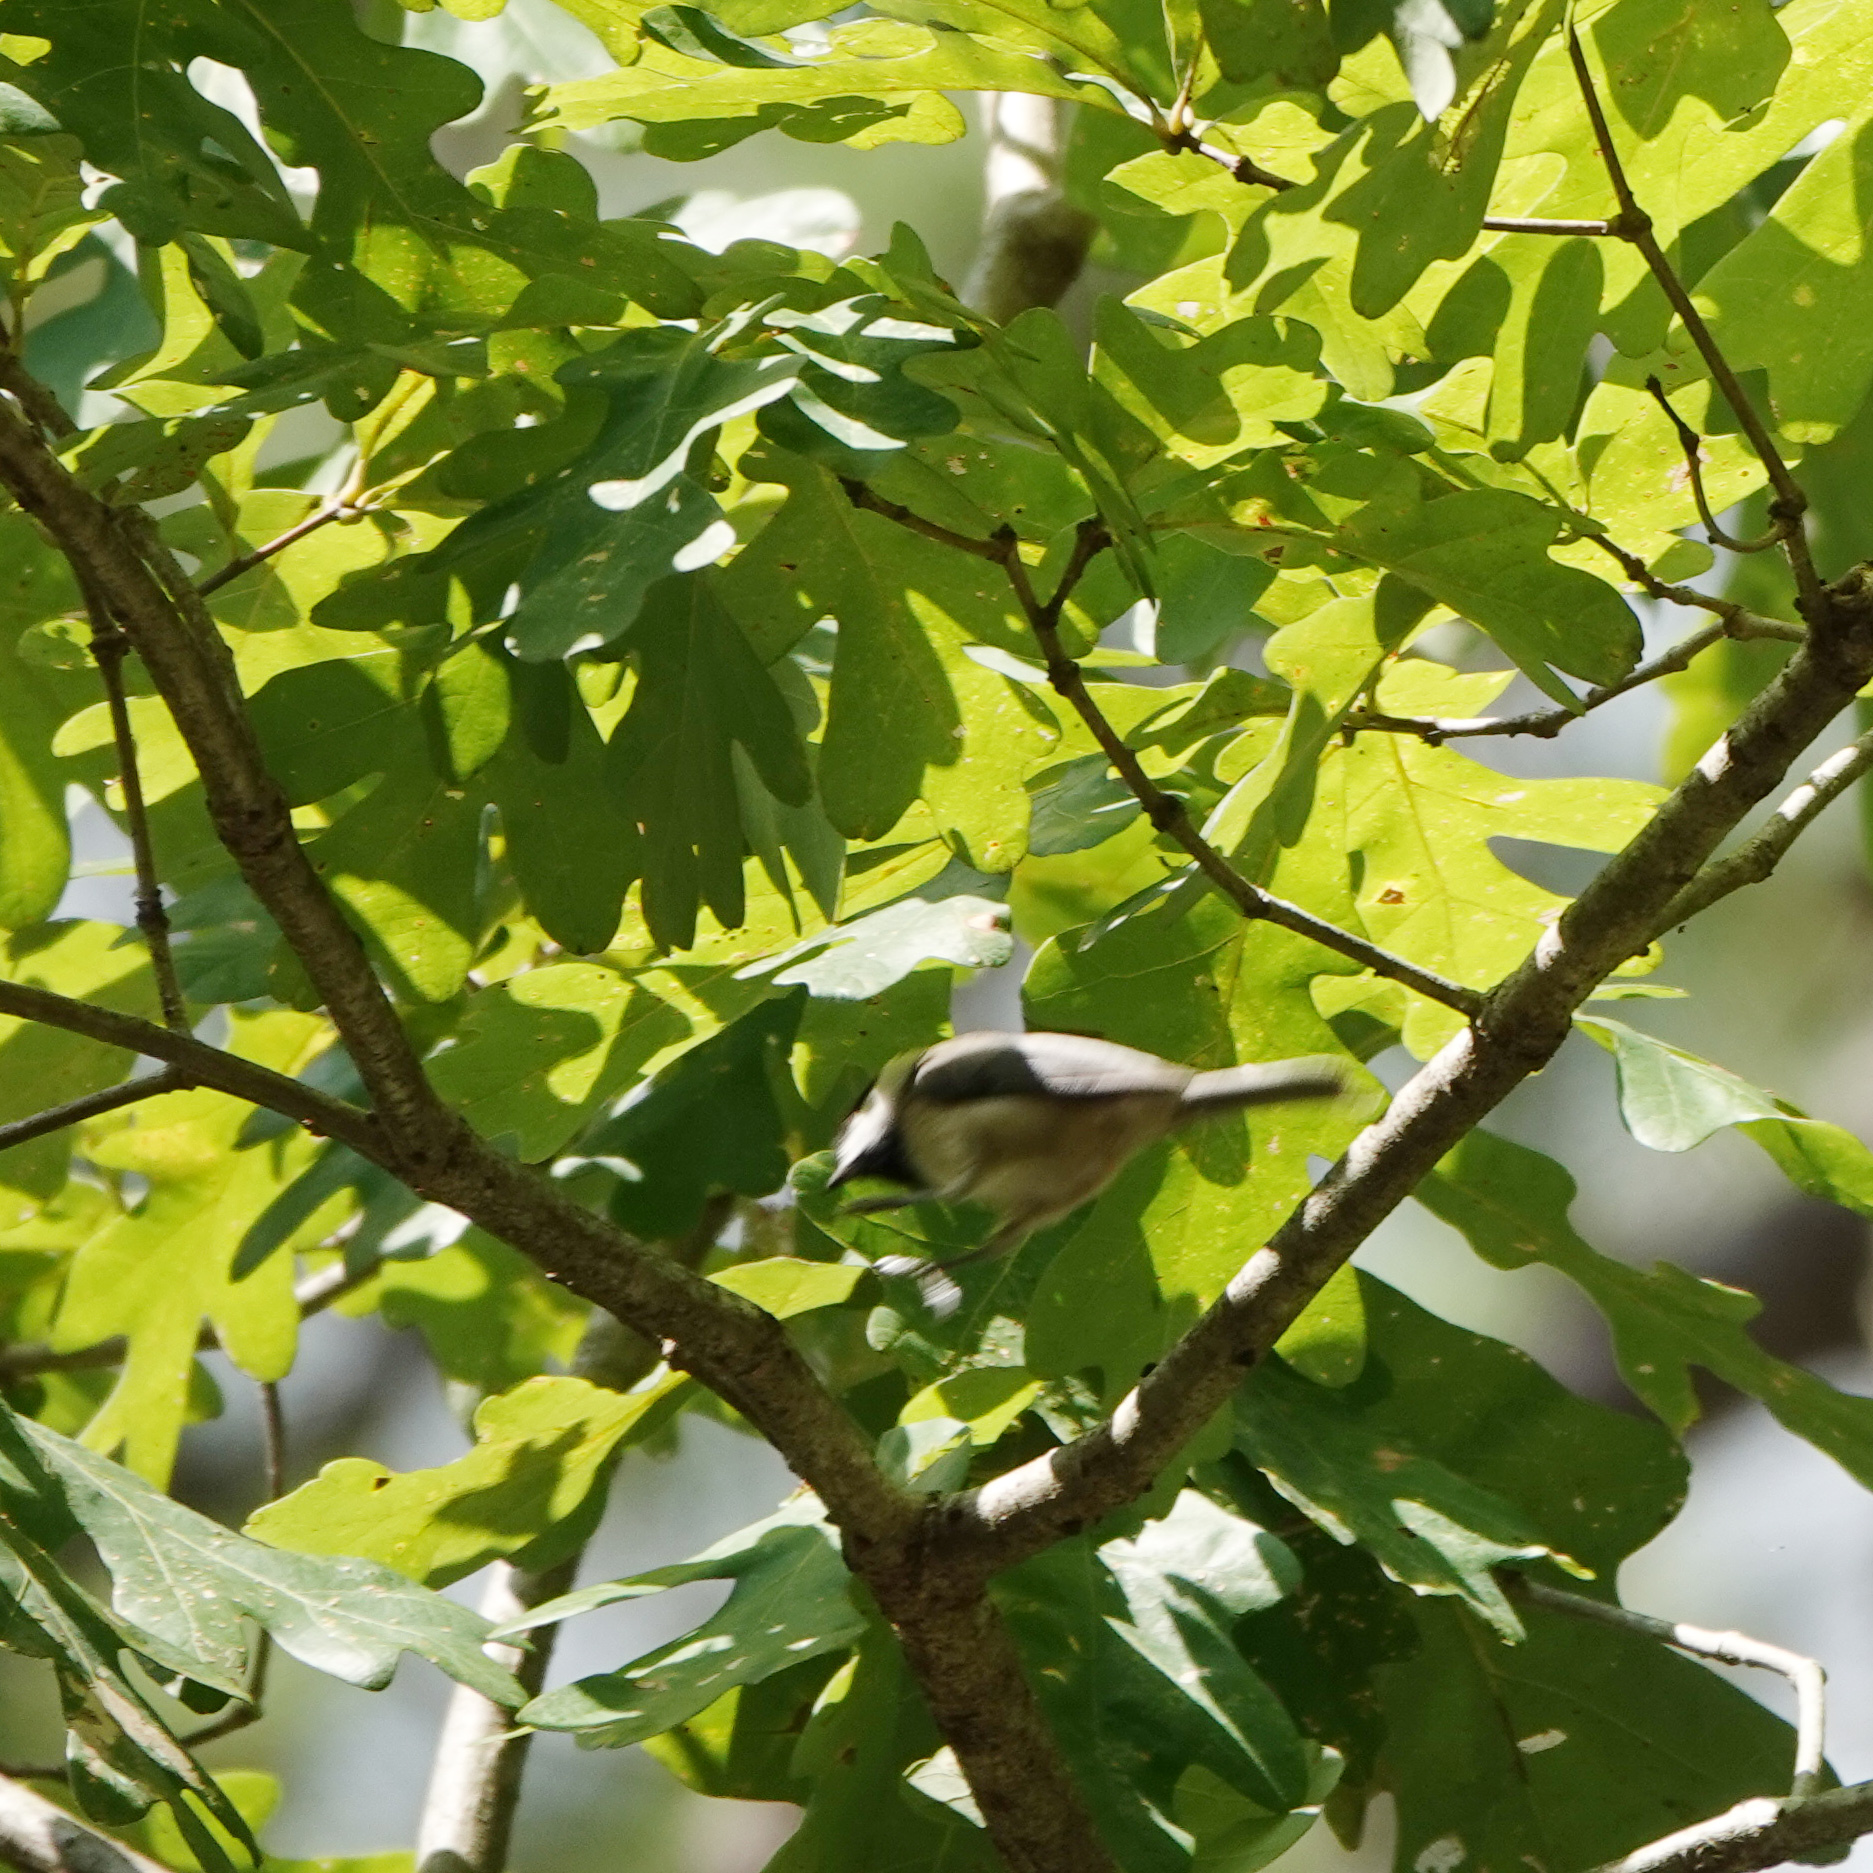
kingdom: Animalia
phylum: Chordata
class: Aves
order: Passeriformes
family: Paridae
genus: Poecile
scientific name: Poecile carolinensis
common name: Carolina chickadee
